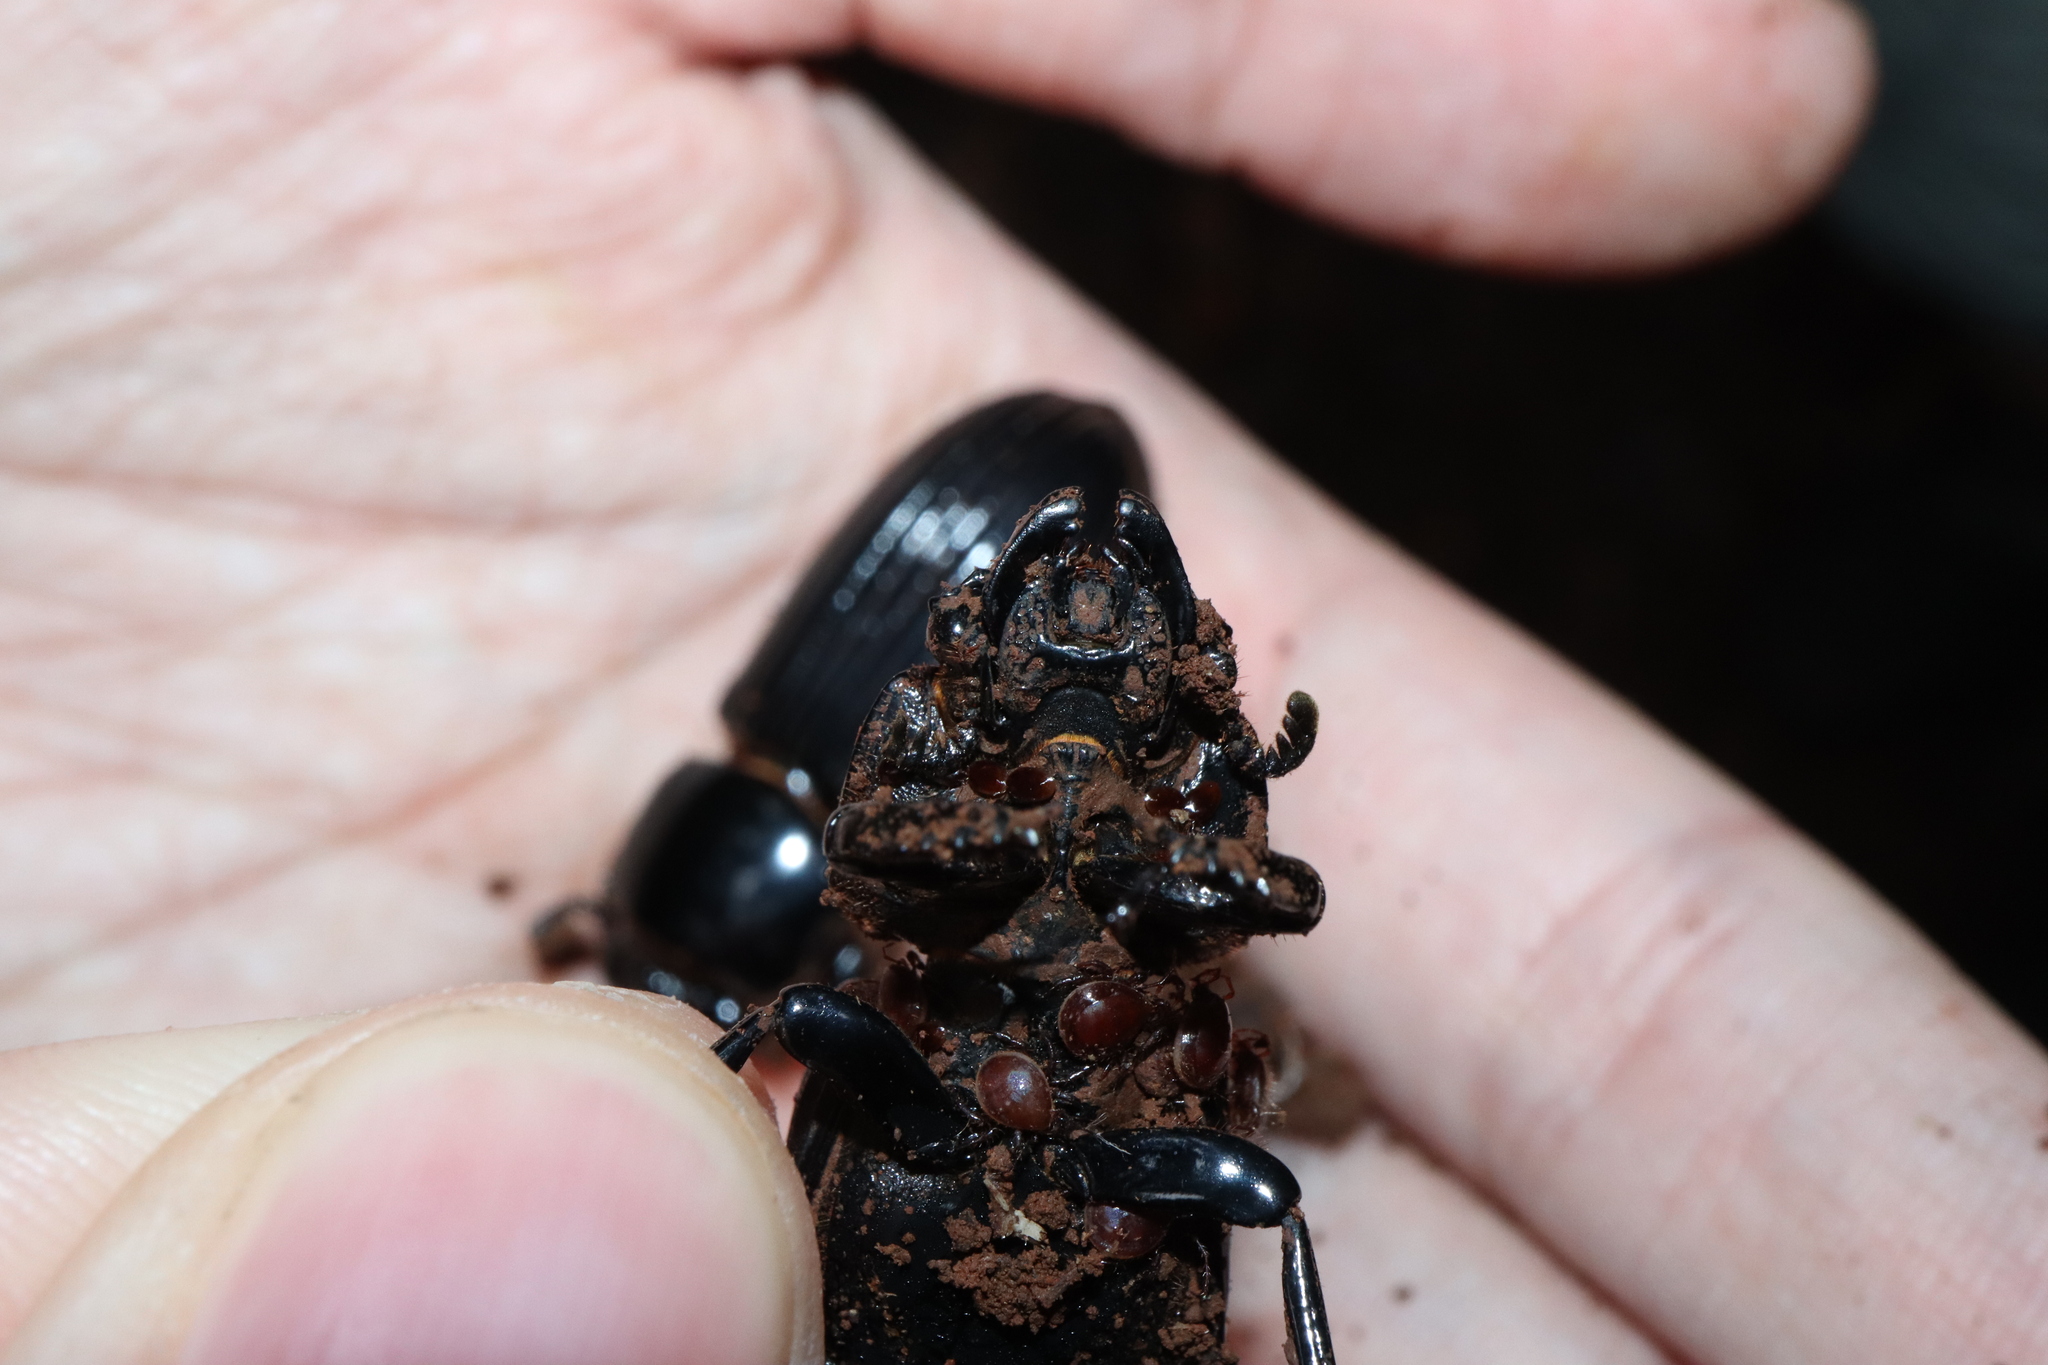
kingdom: Animalia
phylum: Arthropoda
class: Arachnida
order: Mesostigmata
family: Fedrizziidae
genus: Neofedrizzia
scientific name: Neofedrizzia tragardhi
